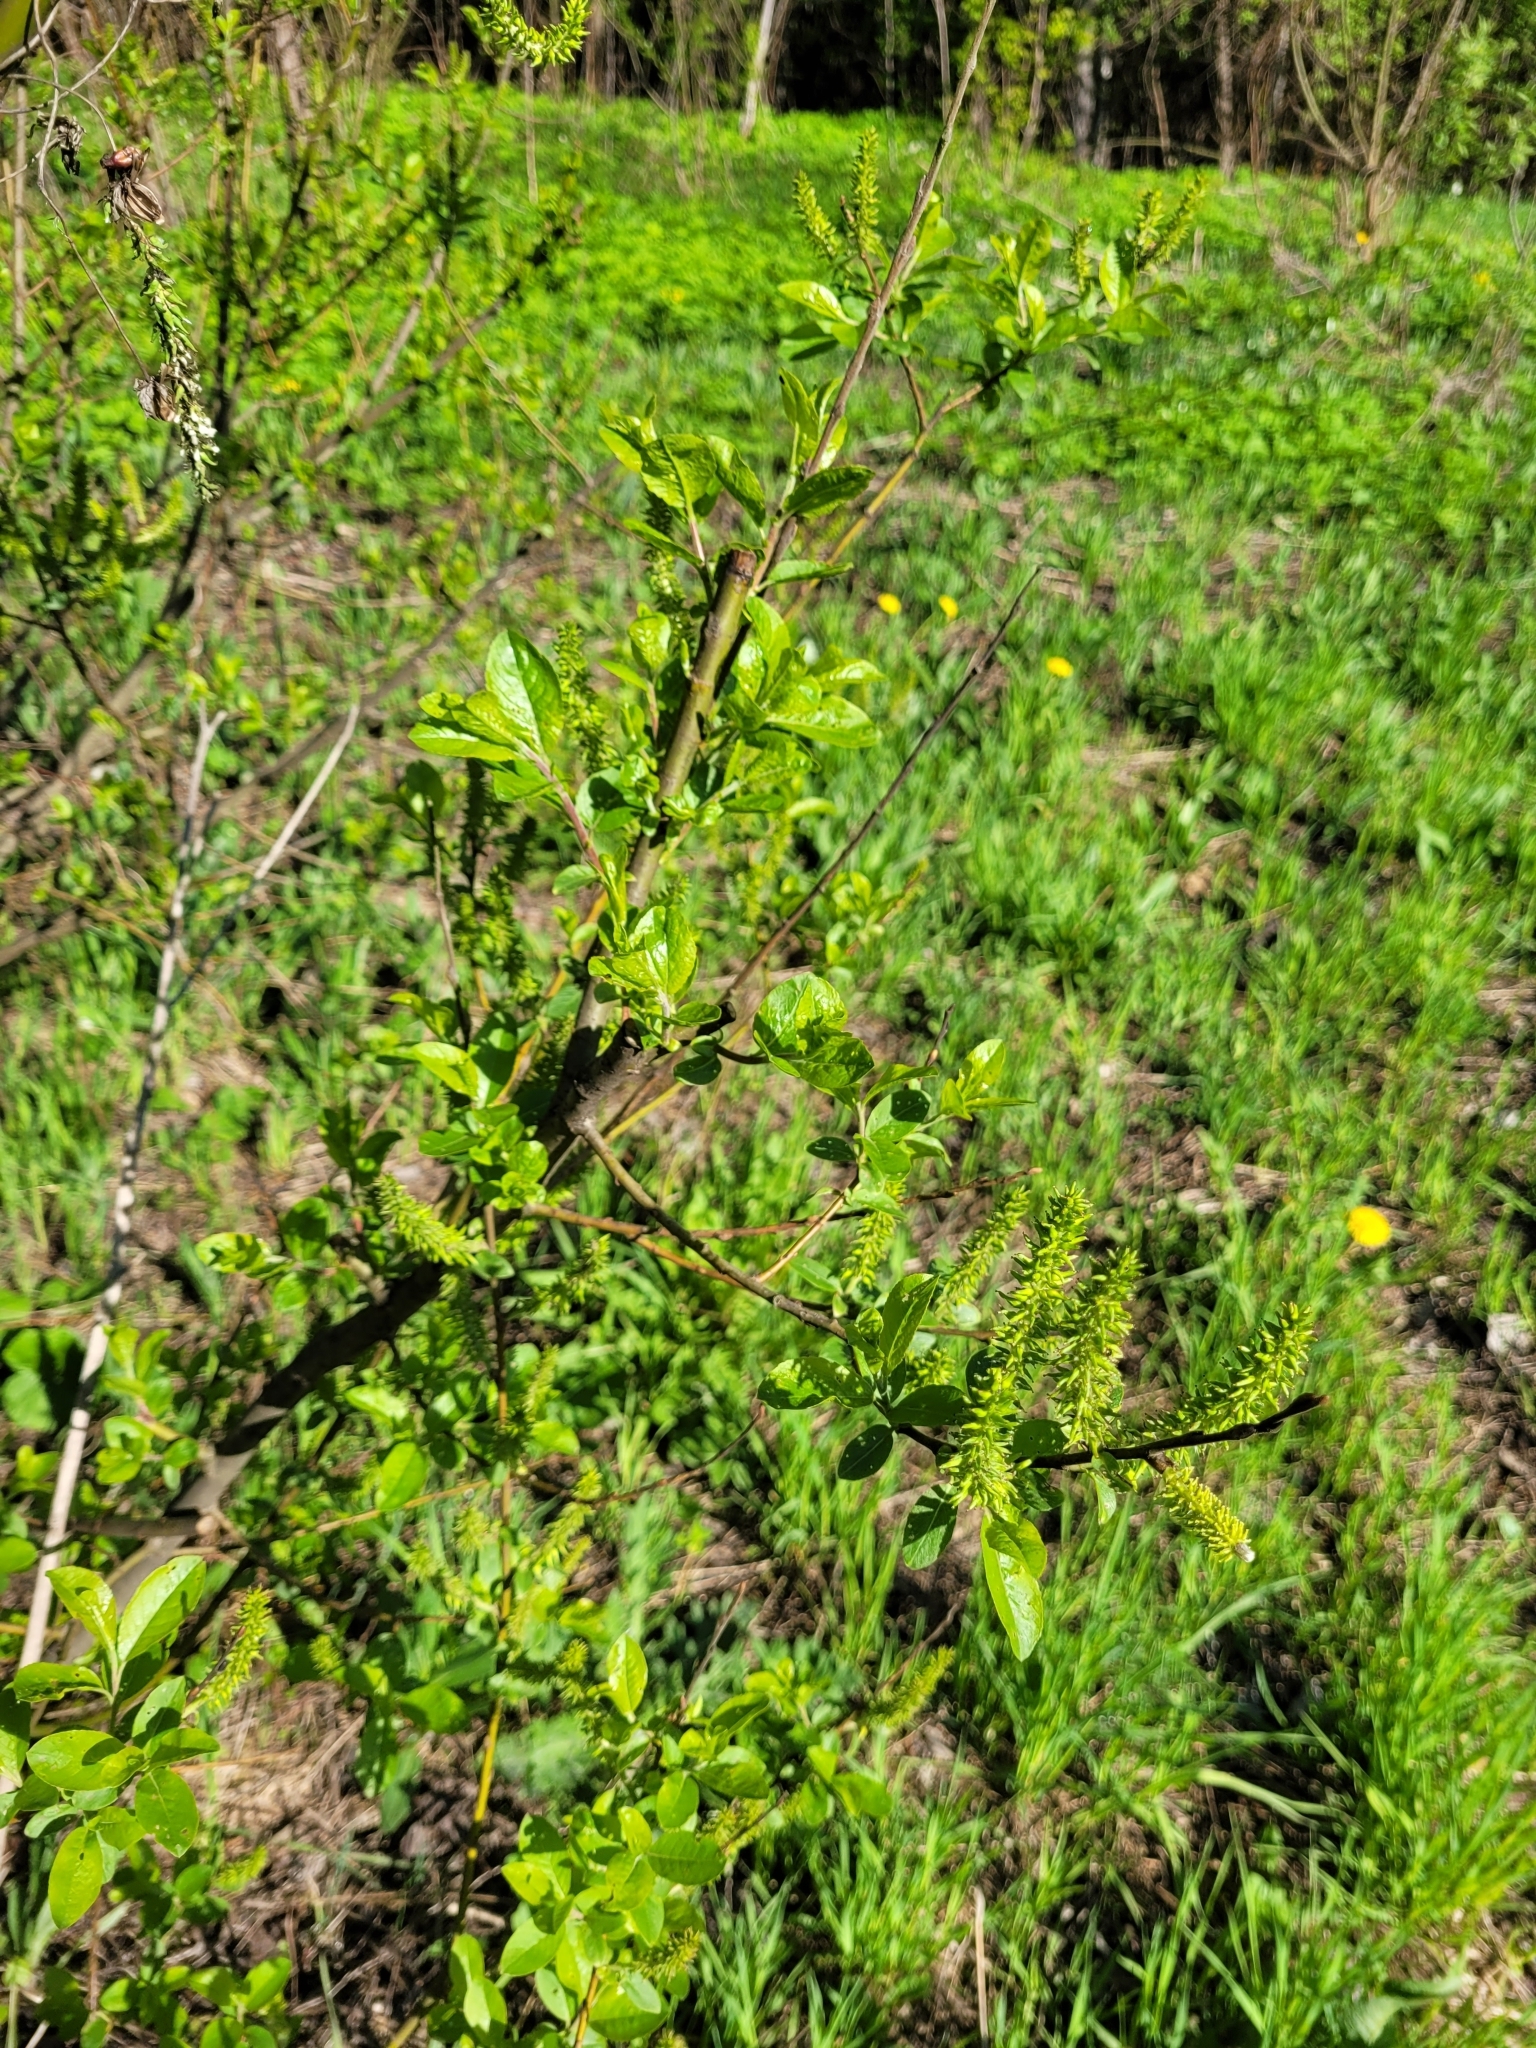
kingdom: Plantae
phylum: Tracheophyta
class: Magnoliopsida
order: Malpighiales
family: Salicaceae
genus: Salix
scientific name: Salix myrsinifolia
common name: Dark-leaved willow
